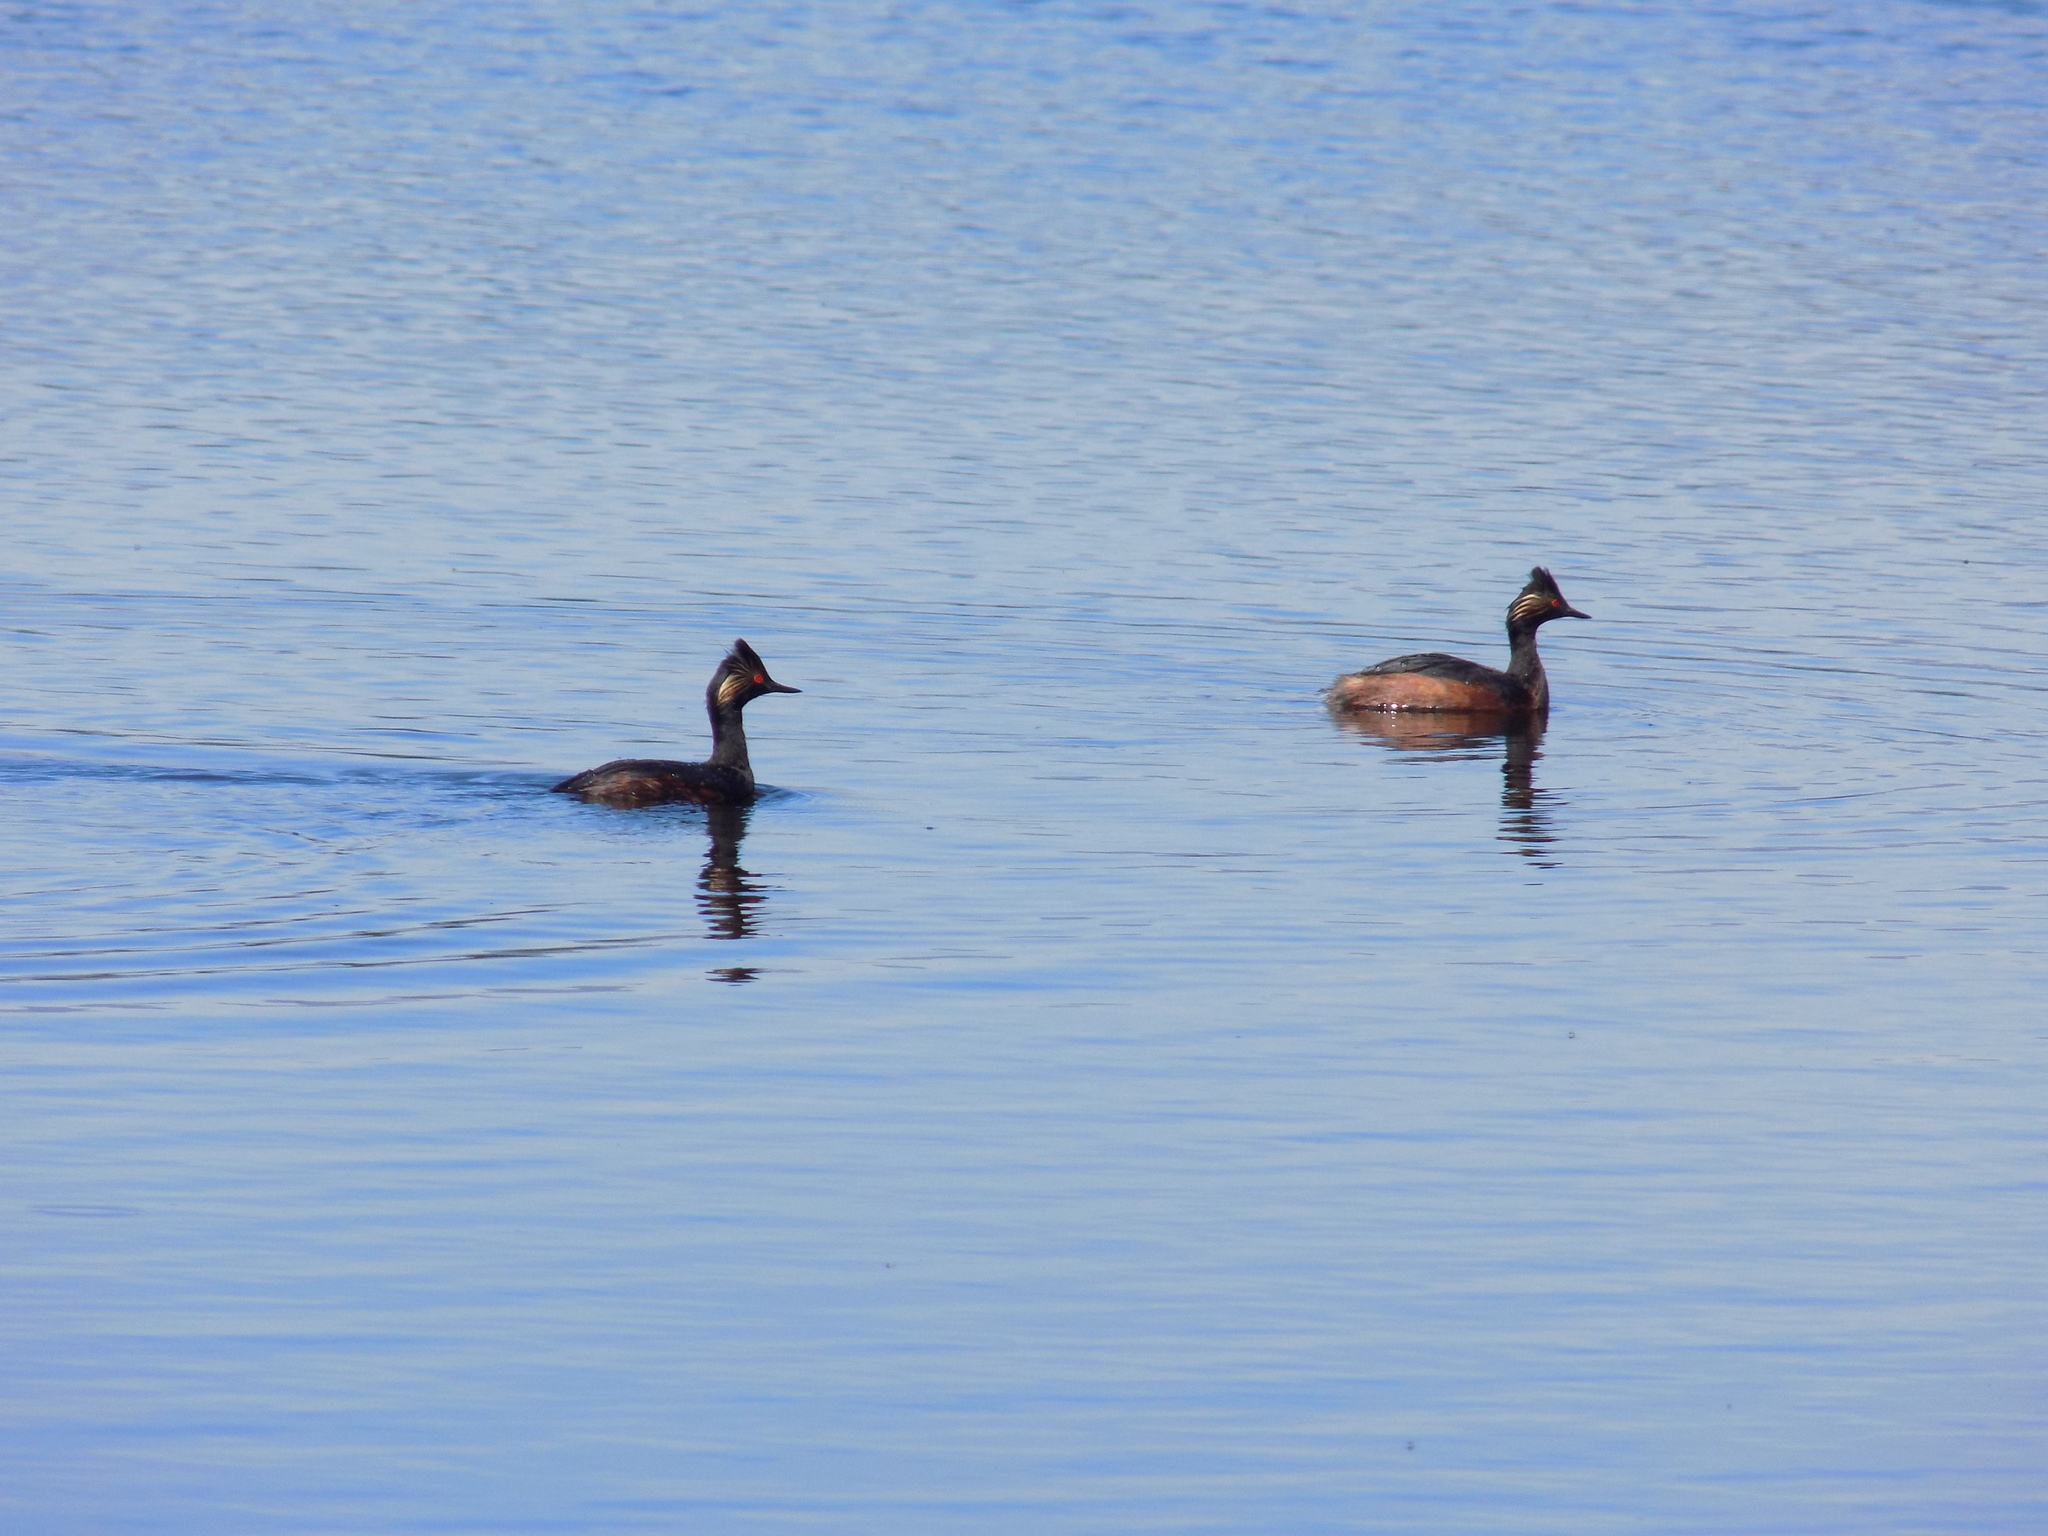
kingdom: Animalia
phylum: Chordata
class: Aves
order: Podicipediformes
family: Podicipedidae
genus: Podiceps
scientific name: Podiceps nigricollis
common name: Black-necked grebe
